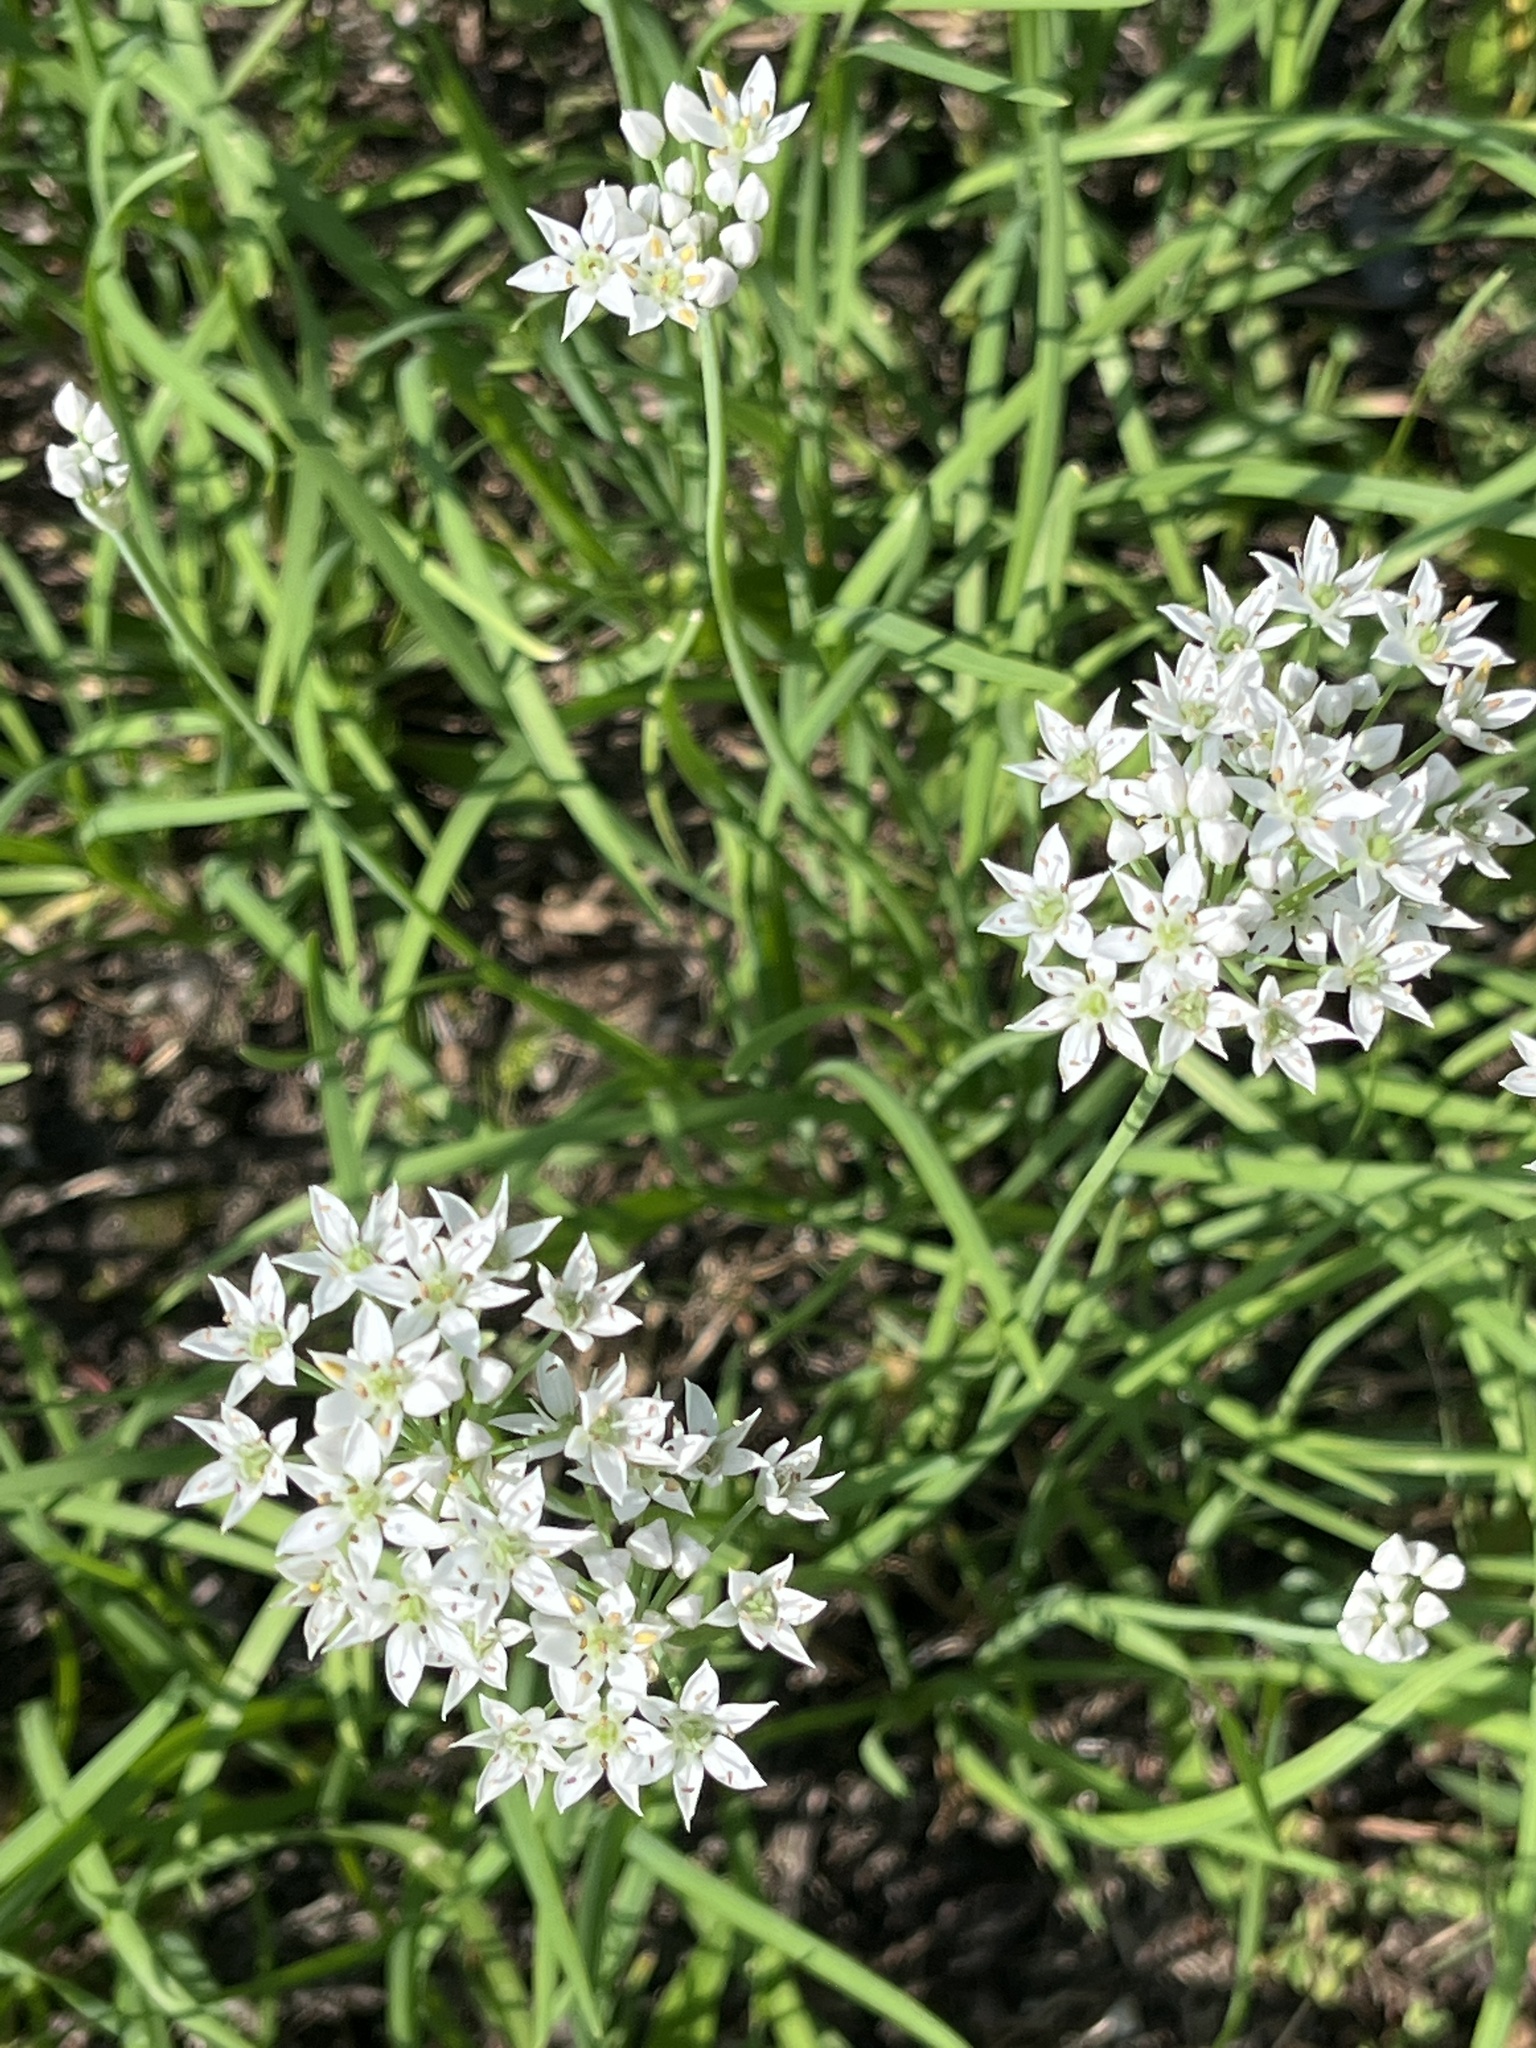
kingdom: Plantae
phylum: Tracheophyta
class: Liliopsida
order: Asparagales
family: Amaryllidaceae
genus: Allium
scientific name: Allium tuberosum
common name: Chinese chives
